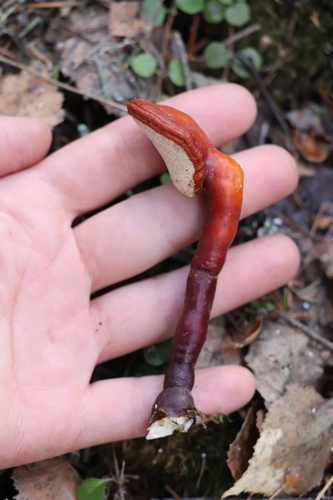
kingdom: Fungi
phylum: Basidiomycota
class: Agaricomycetes
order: Polyporales
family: Polyporaceae
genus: Ganoderma
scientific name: Ganoderma lucidum
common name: Lacquered bracket
